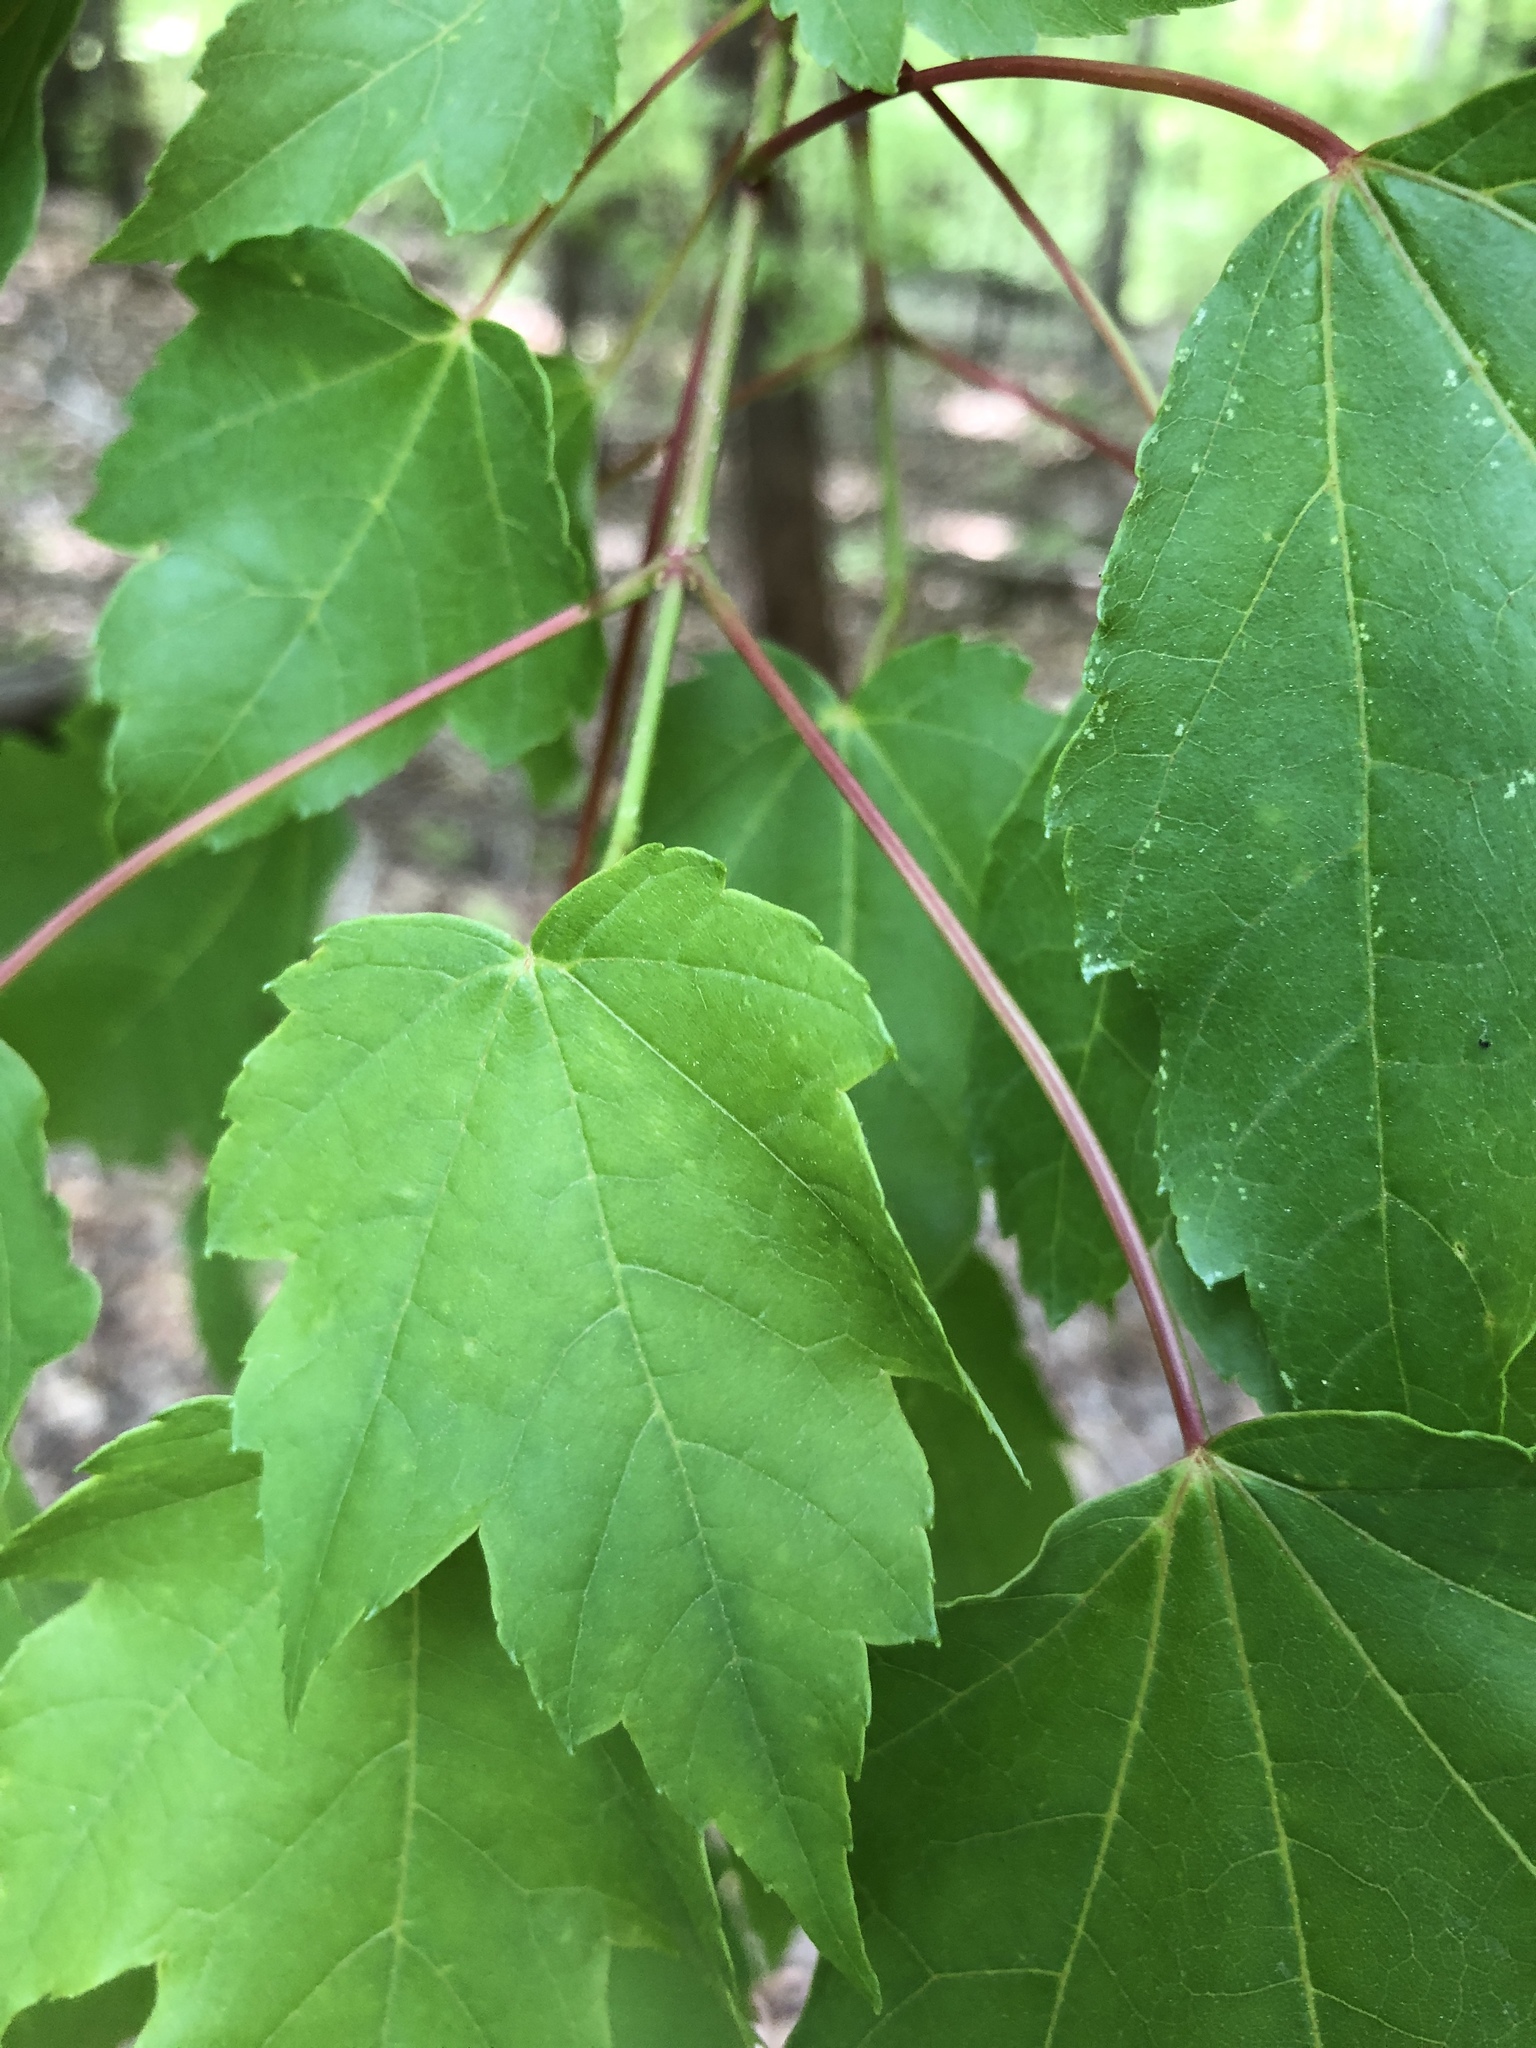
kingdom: Plantae
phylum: Tracheophyta
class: Magnoliopsida
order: Sapindales
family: Sapindaceae
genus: Acer
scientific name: Acer rubrum
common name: Red maple
